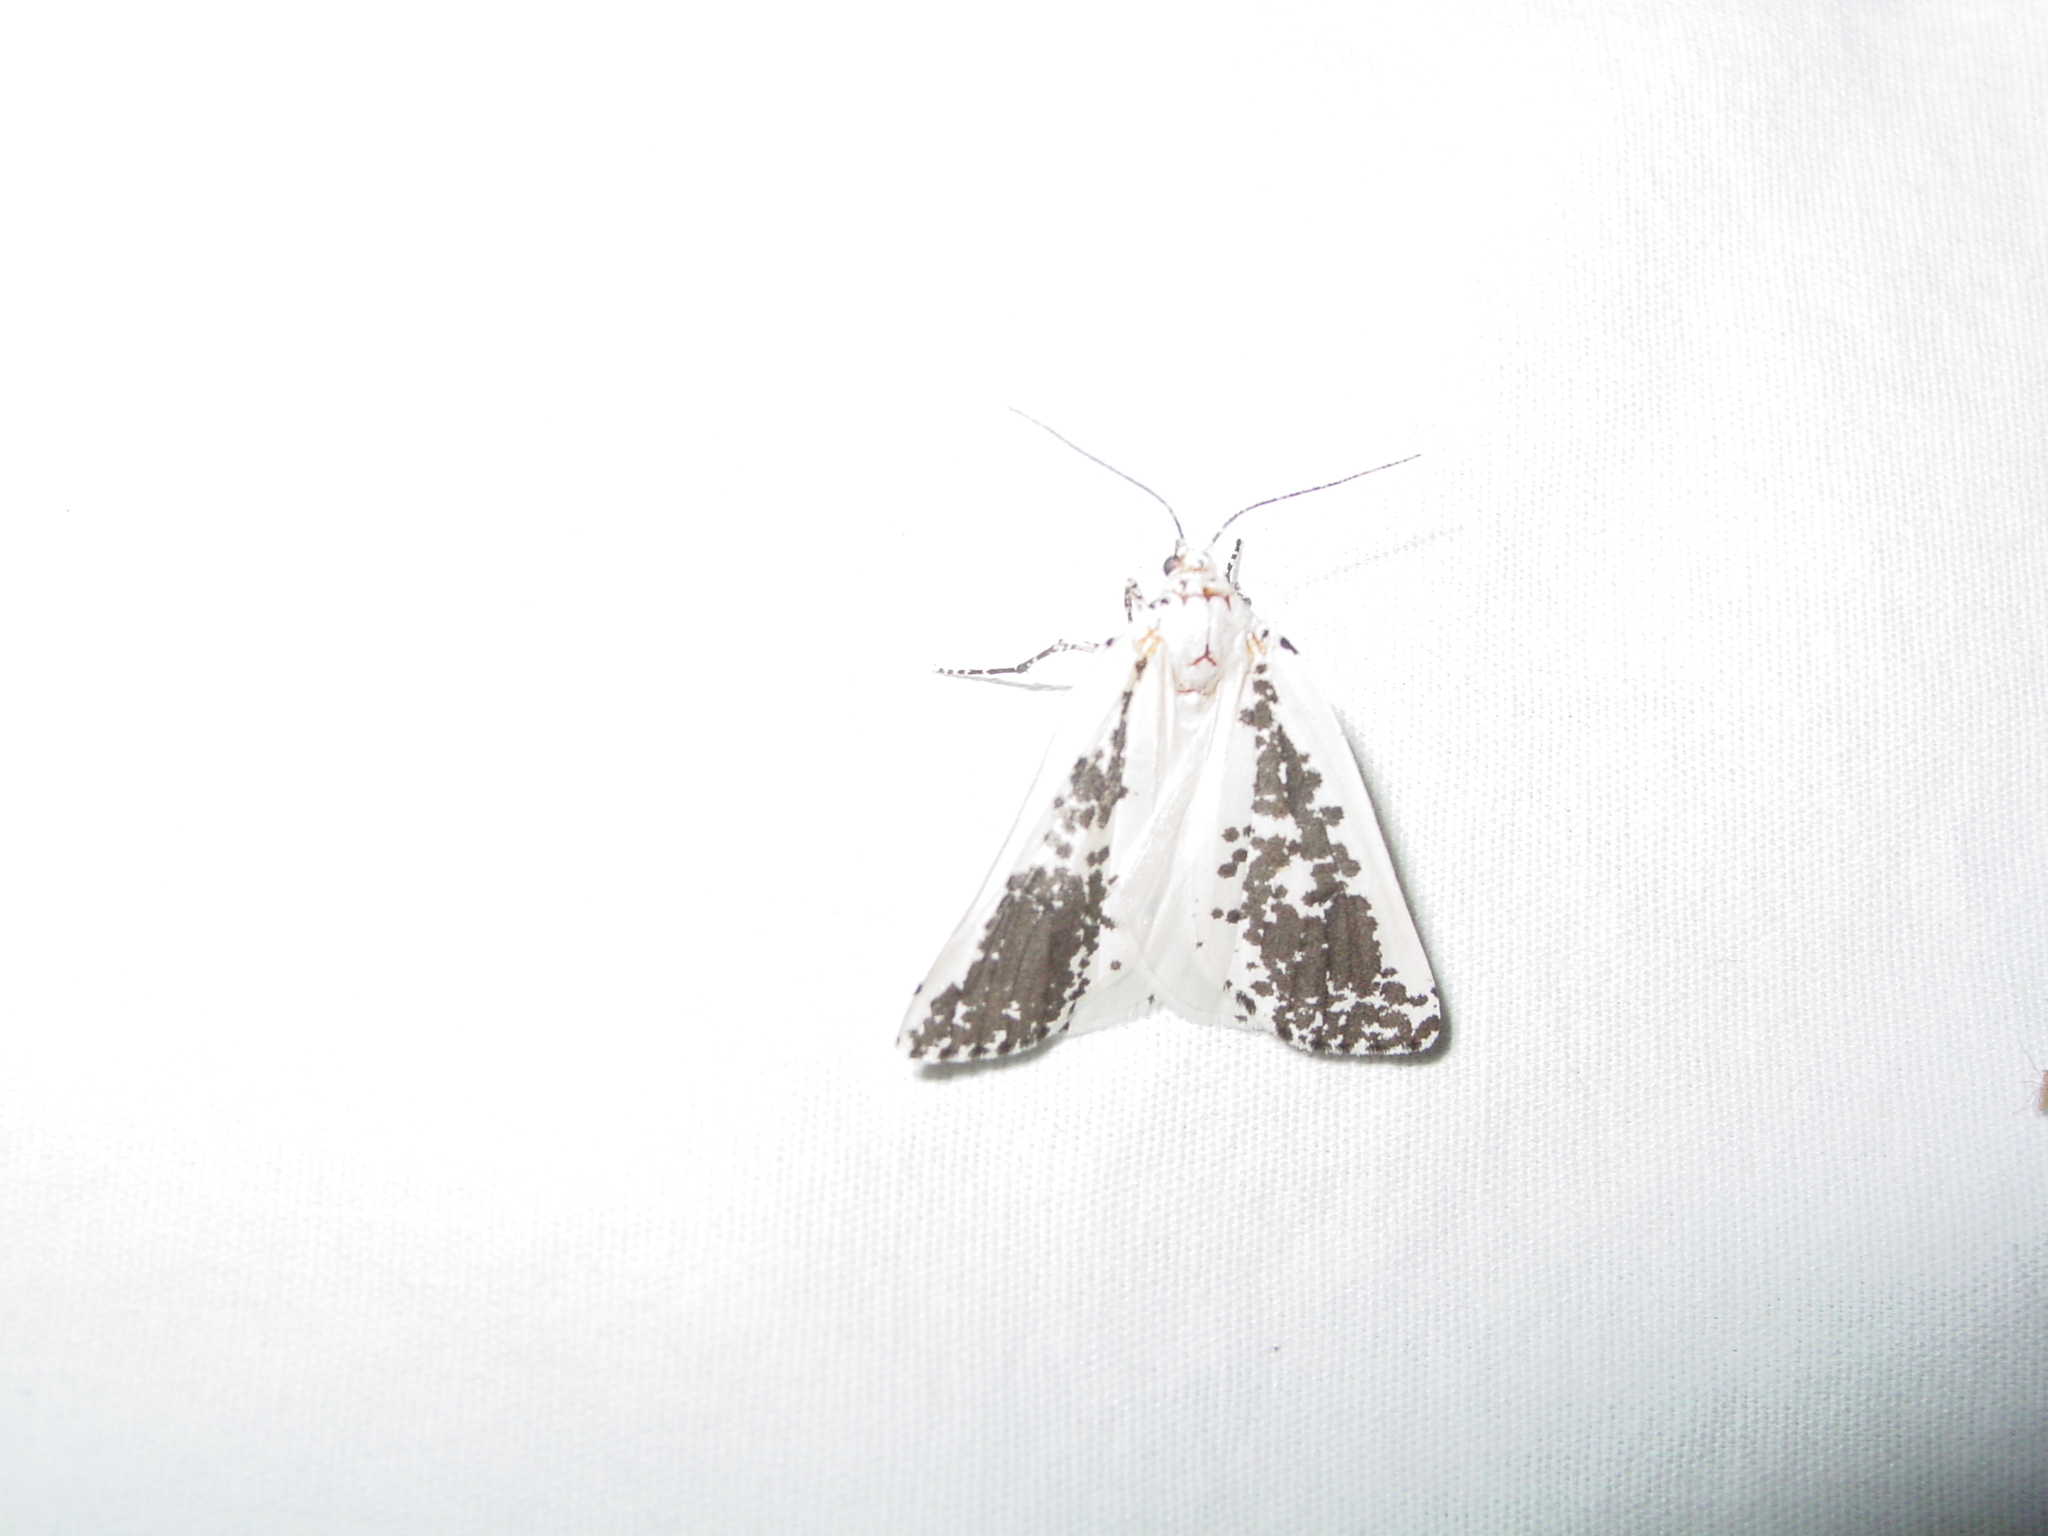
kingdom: Animalia
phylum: Arthropoda
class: Insecta
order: Lepidoptera
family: Geometridae
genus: Eucaterva
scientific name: Eucaterva variaria
